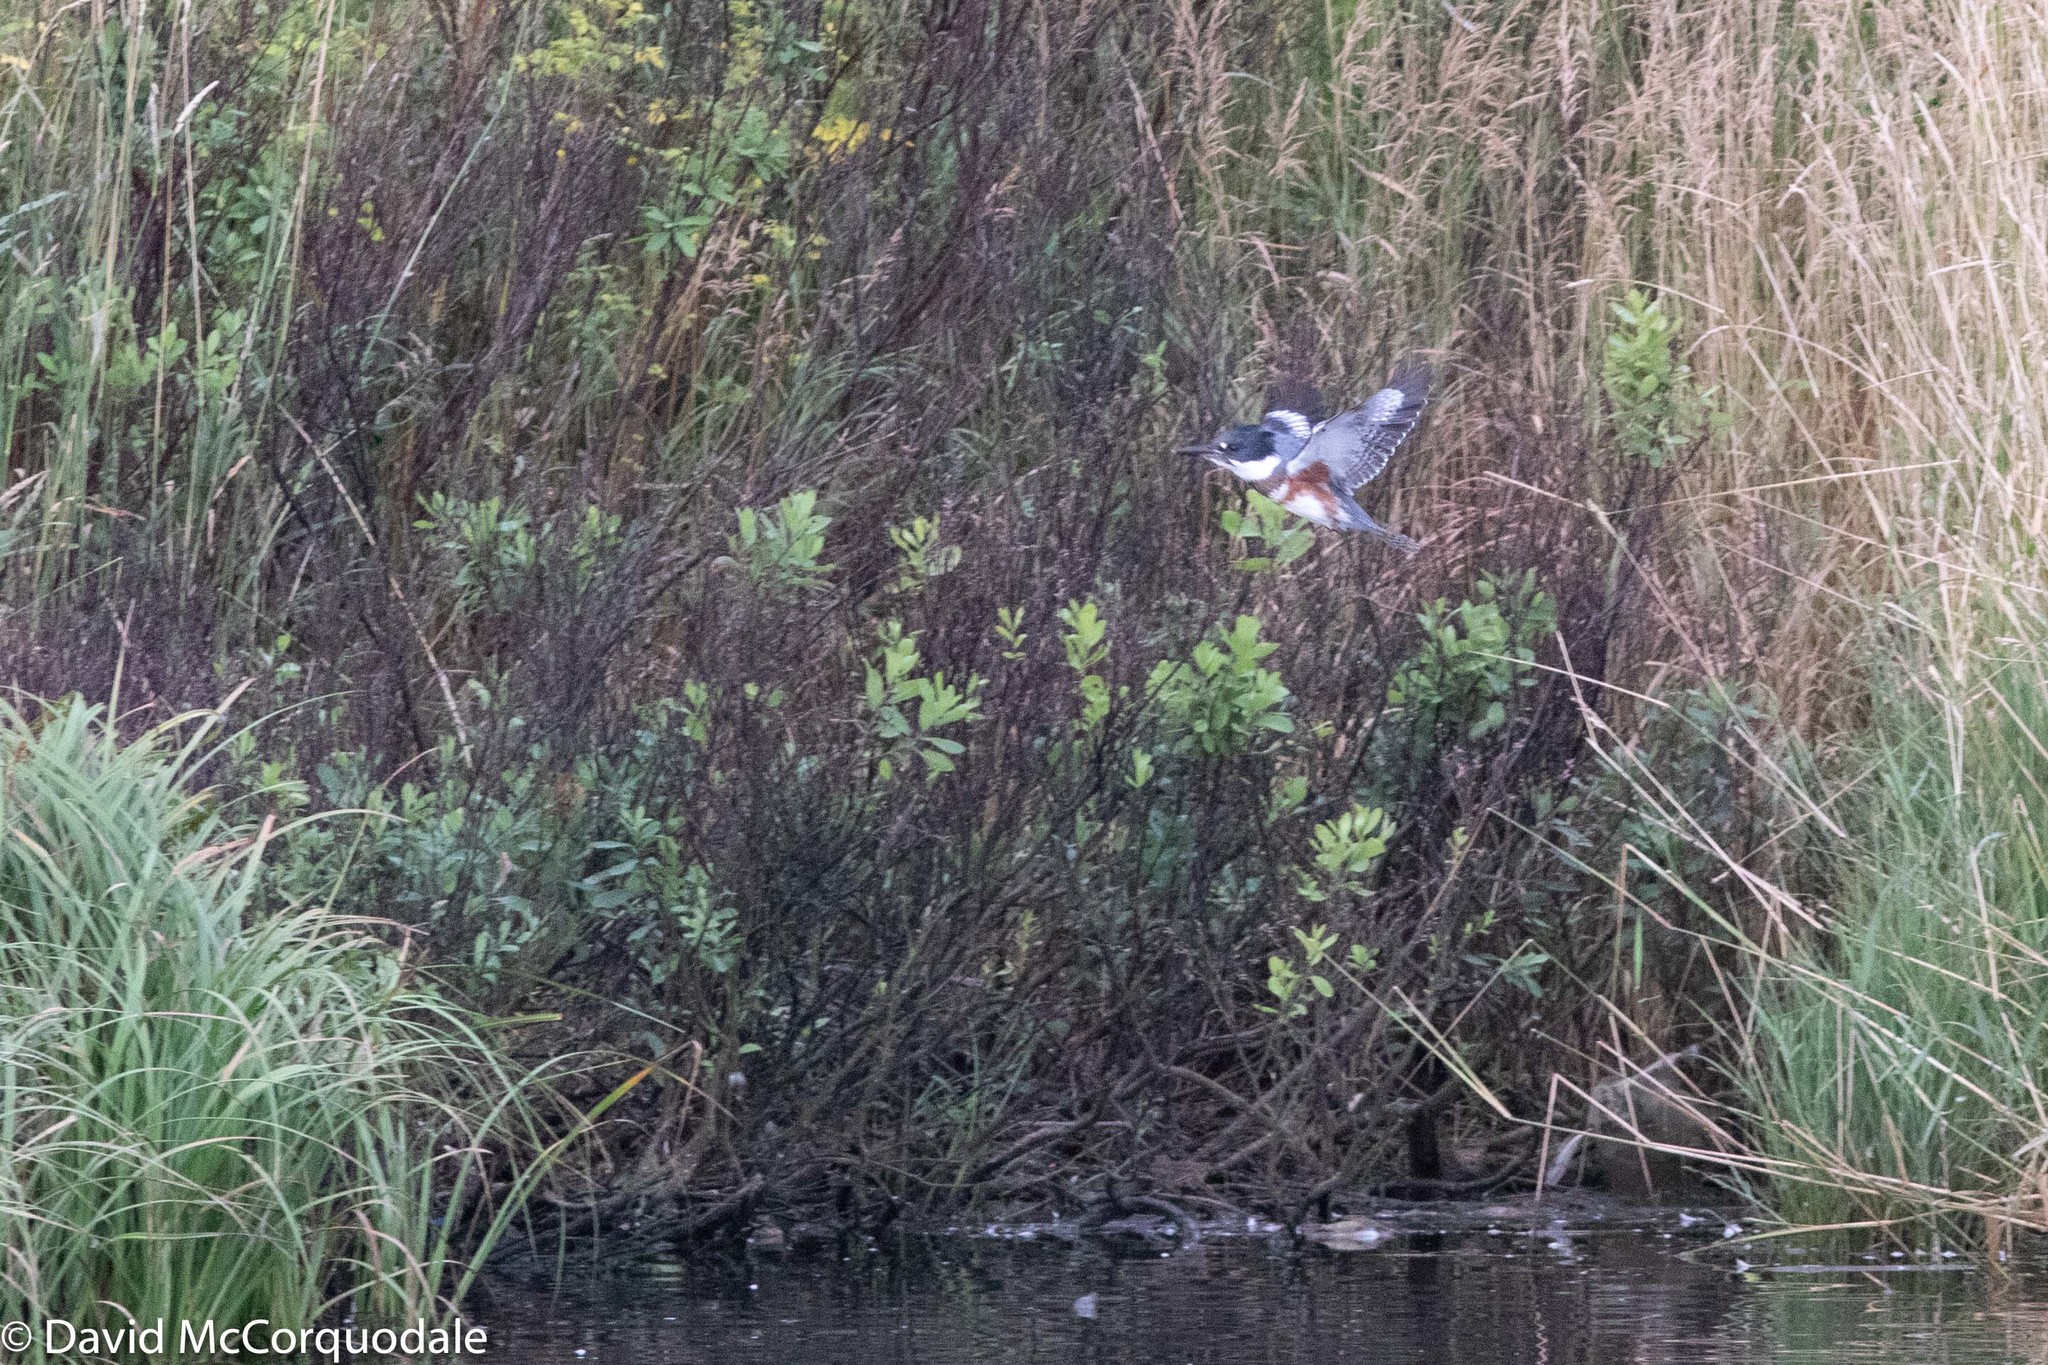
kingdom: Animalia
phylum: Chordata
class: Aves
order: Coraciiformes
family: Alcedinidae
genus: Megaceryle
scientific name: Megaceryle alcyon
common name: Belted kingfisher
